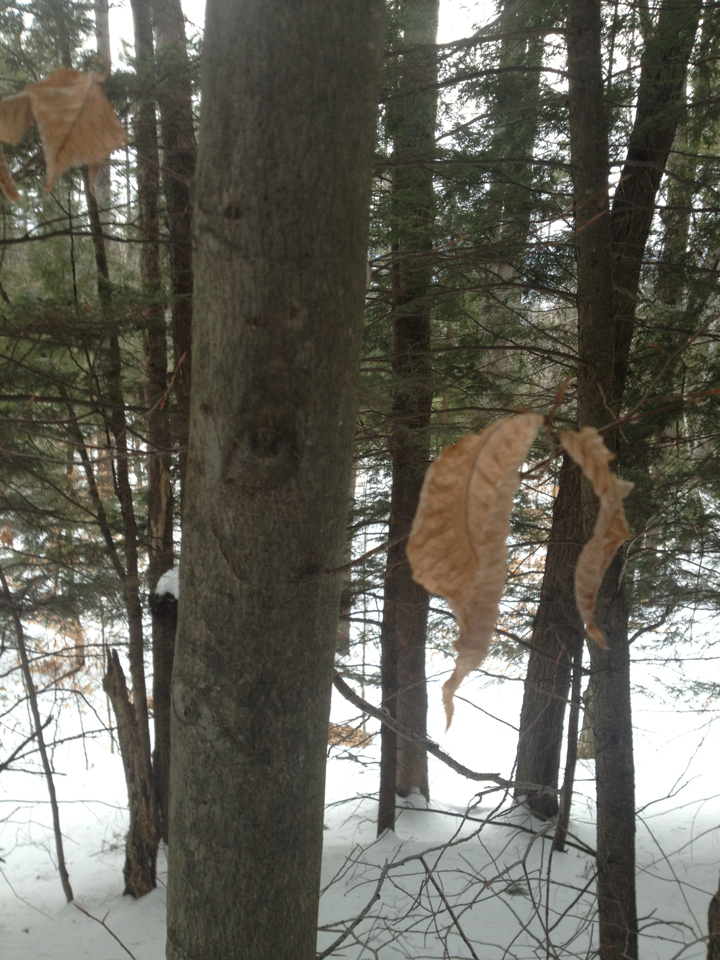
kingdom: Plantae
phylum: Tracheophyta
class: Magnoliopsida
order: Fagales
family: Fagaceae
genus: Fagus
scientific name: Fagus grandifolia
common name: American beech
